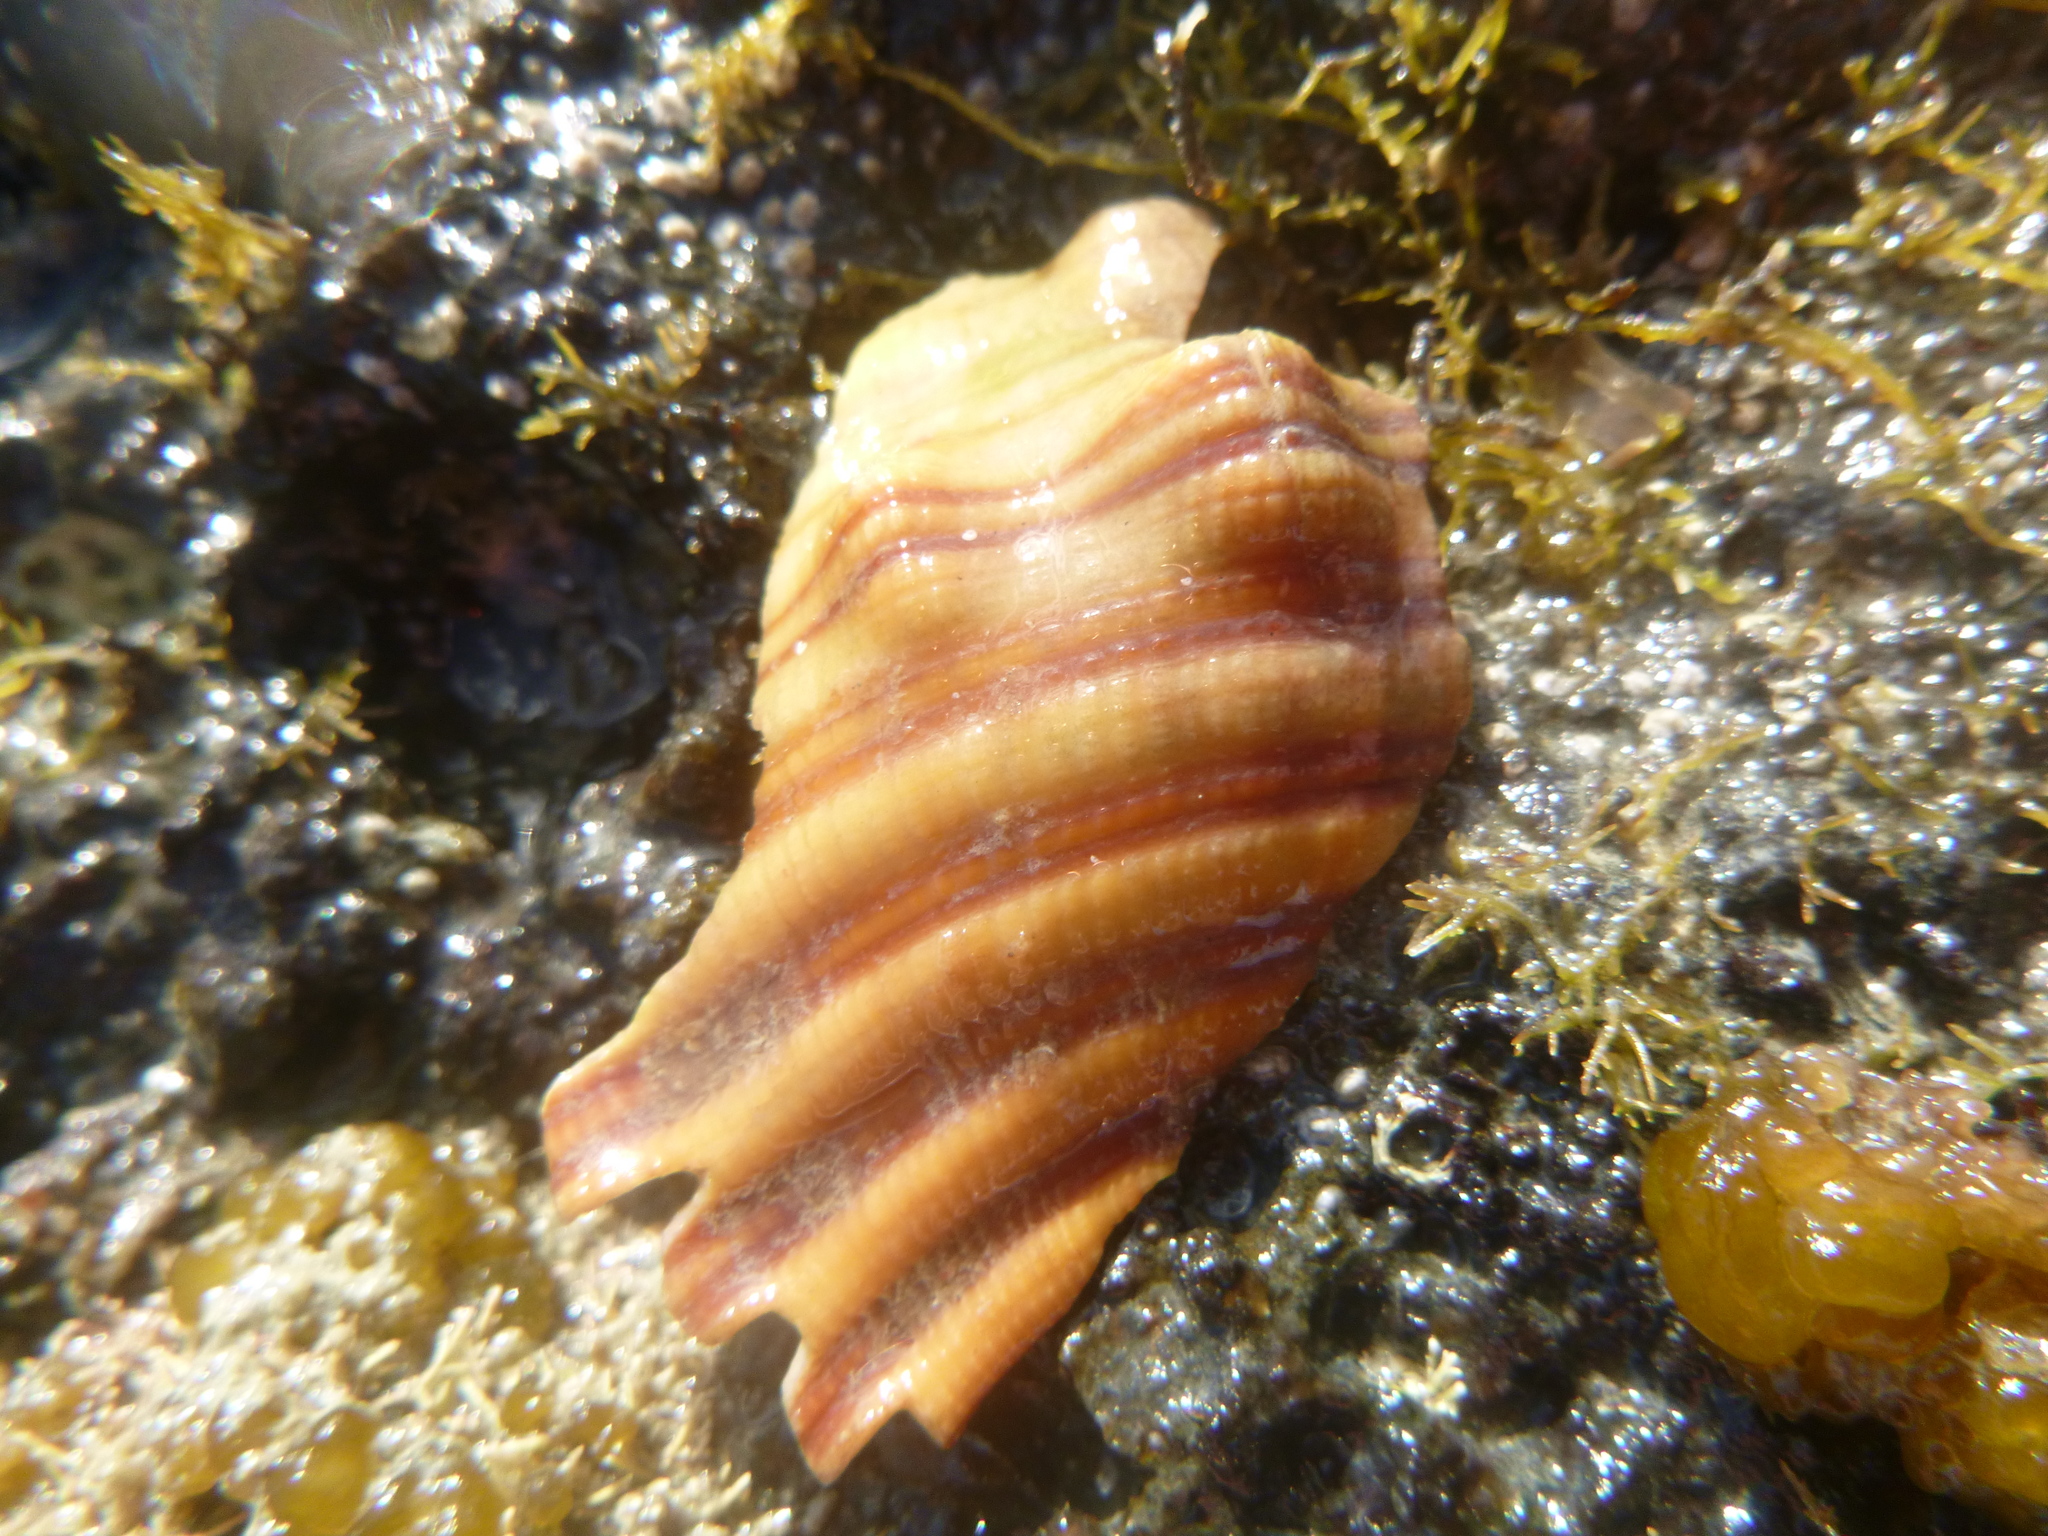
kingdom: Animalia
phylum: Mollusca
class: Gastropoda
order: Littorinimorpha
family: Cymatiidae
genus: Cabestana
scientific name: Cabestana spengleri
